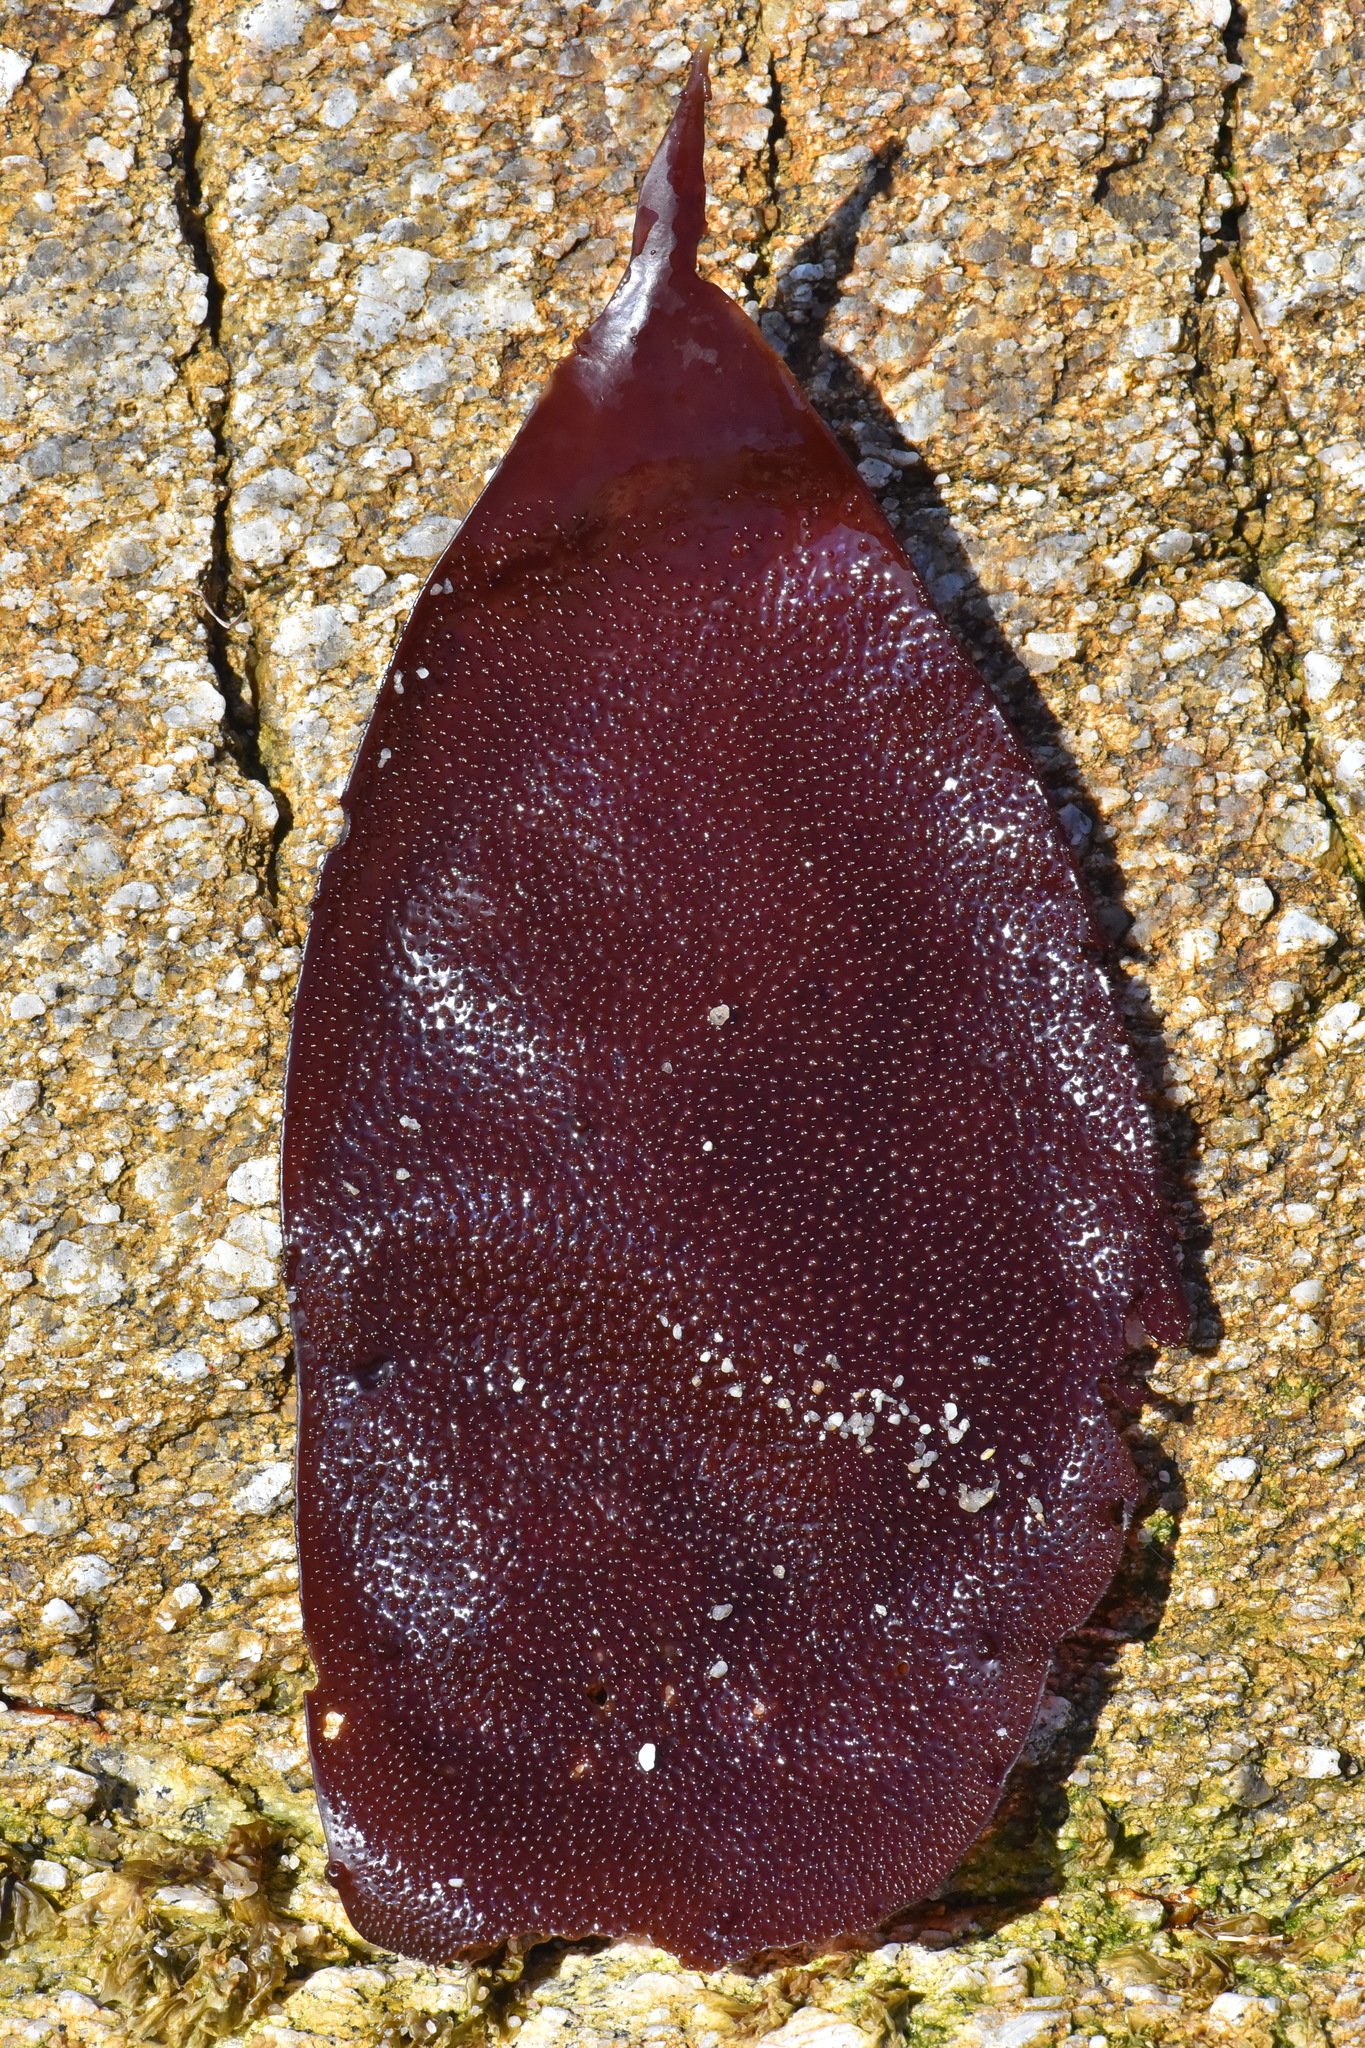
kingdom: Plantae
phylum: Rhodophyta
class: Florideophyceae
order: Gigartinales
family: Gigartinaceae
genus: Chondracanthus
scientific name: Chondracanthus exasperatus
